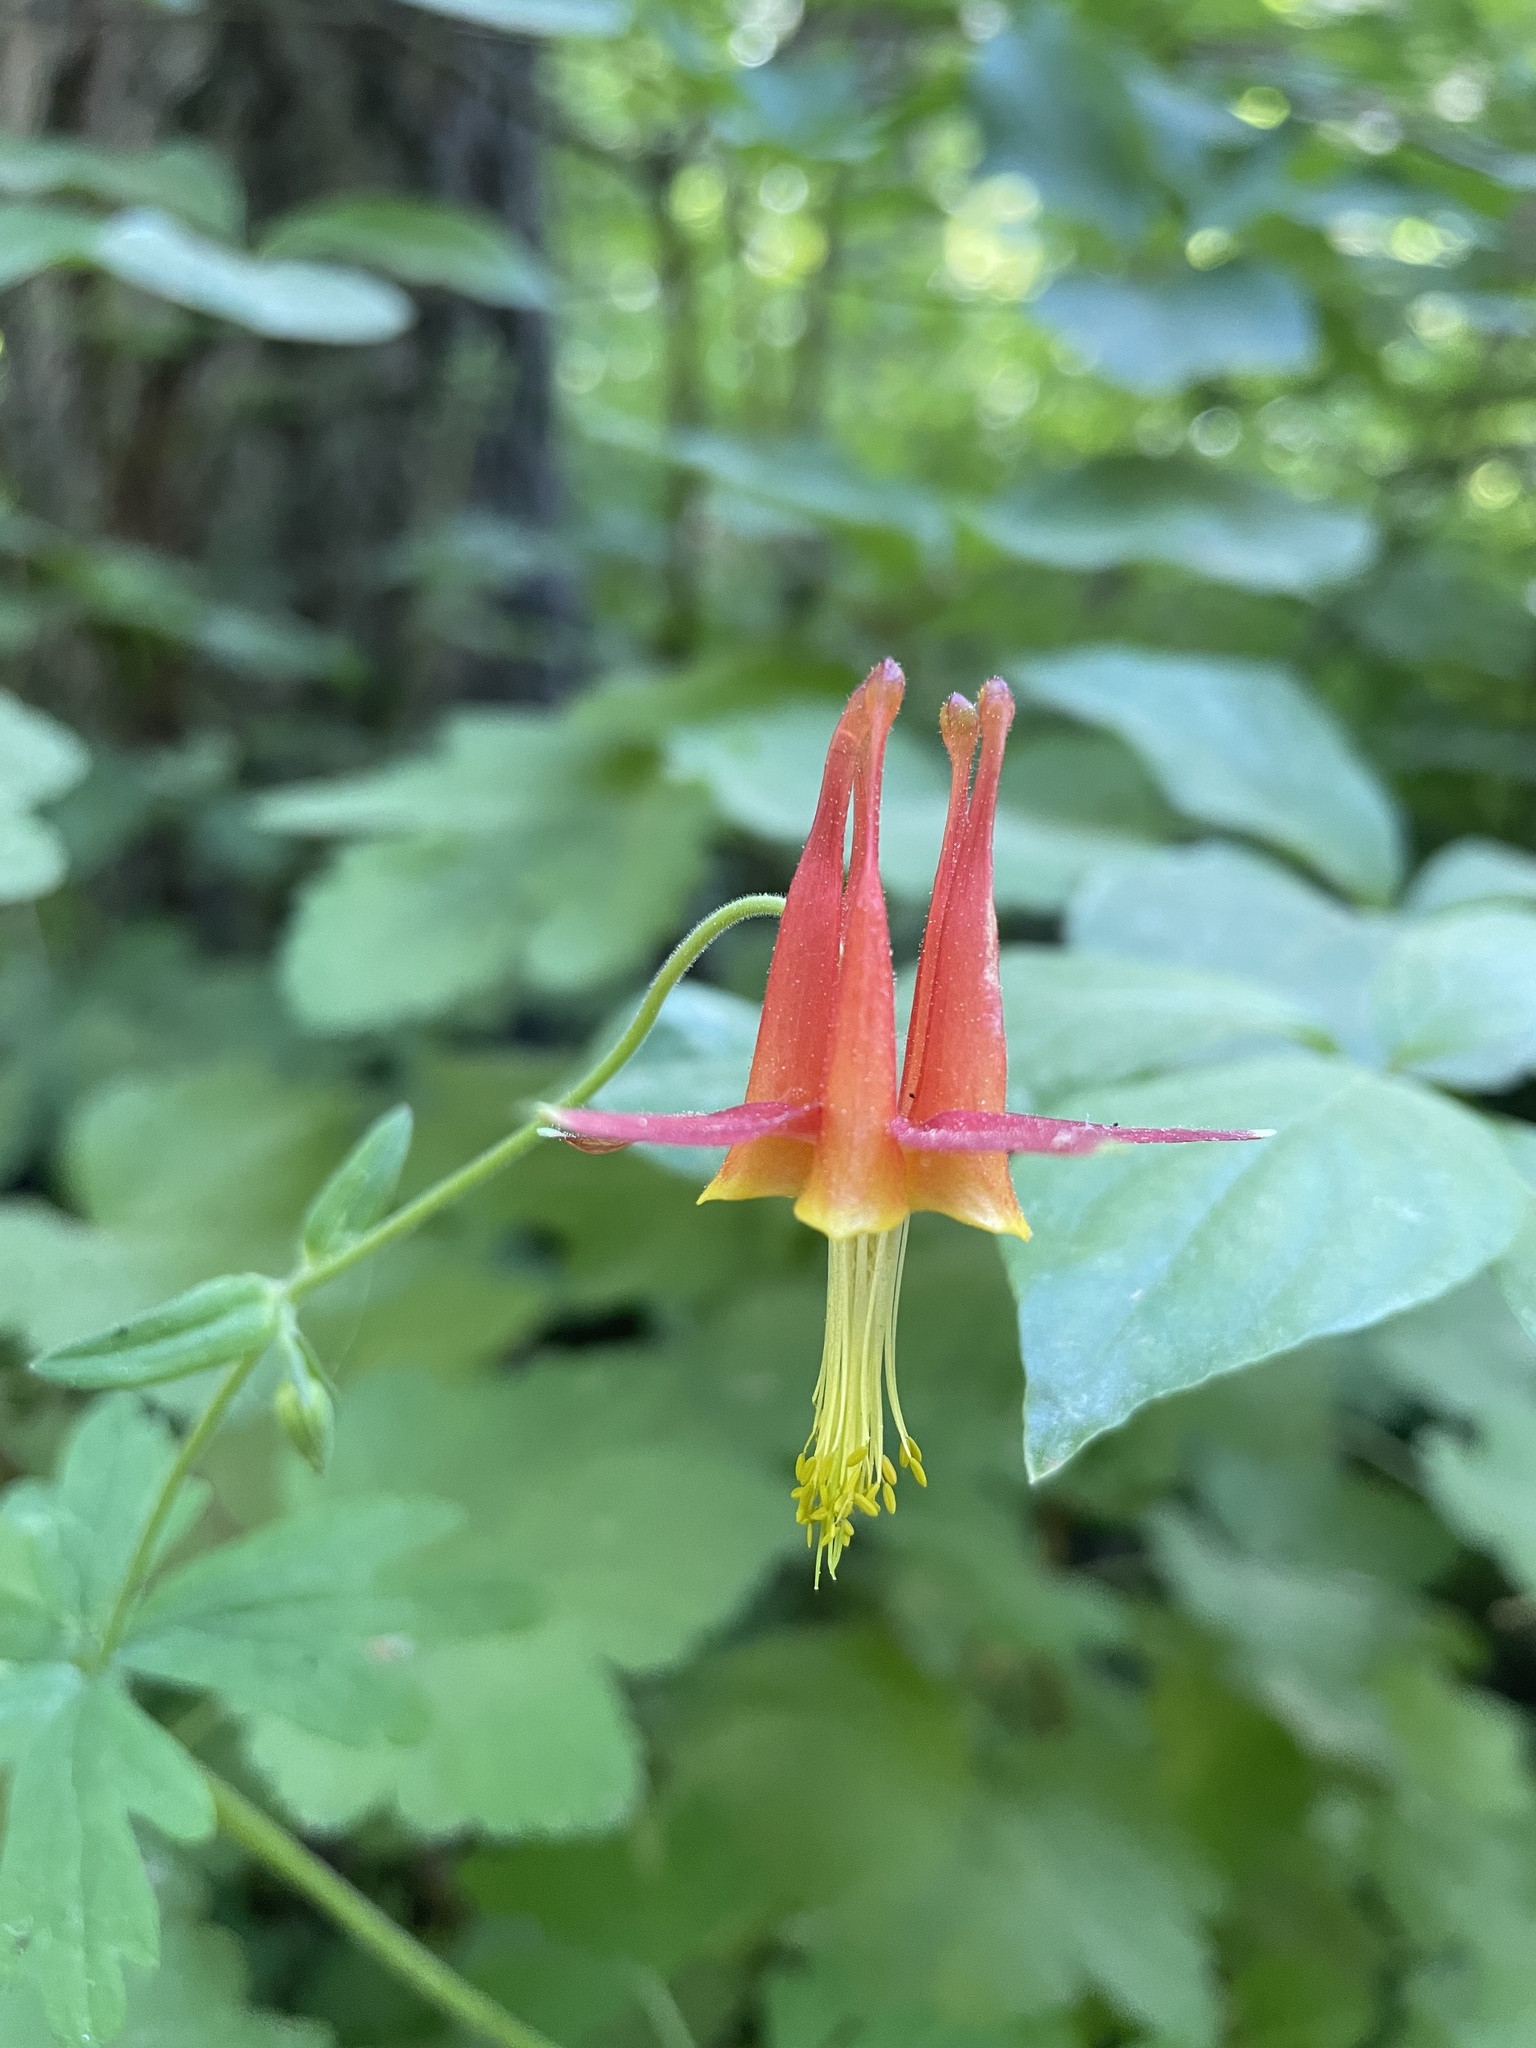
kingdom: Plantae
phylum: Tracheophyta
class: Magnoliopsida
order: Ranunculales
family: Ranunculaceae
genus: Aquilegia
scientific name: Aquilegia formosa
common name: Sitka columbine
